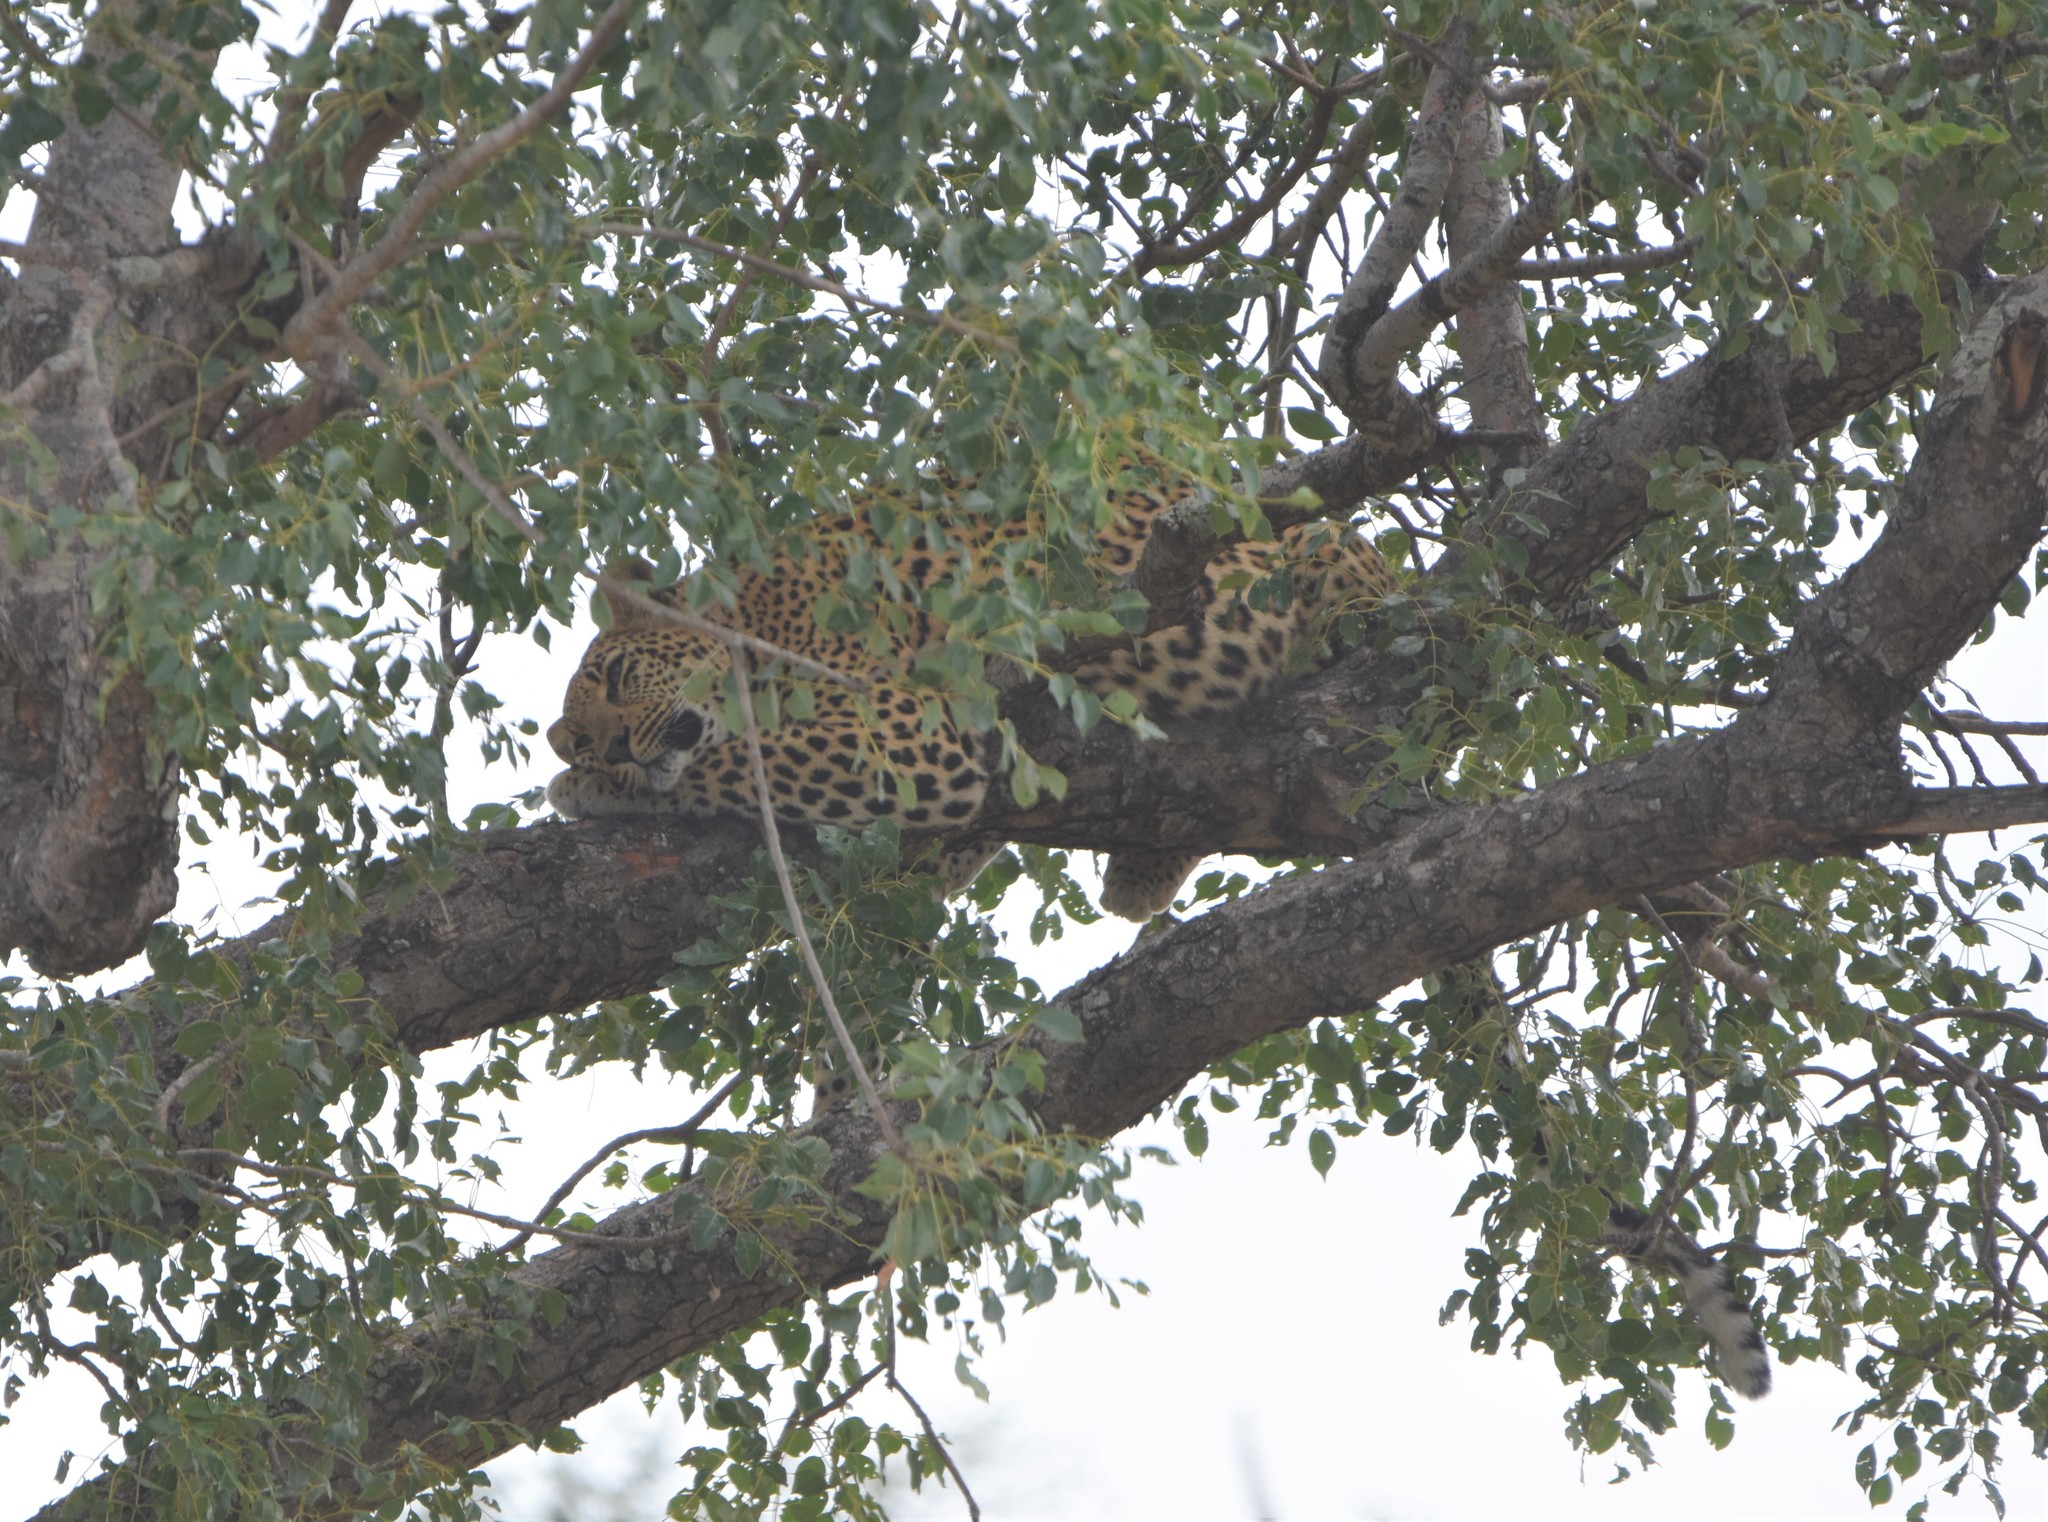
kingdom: Animalia
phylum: Chordata
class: Mammalia
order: Carnivora
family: Felidae
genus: Panthera
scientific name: Panthera pardus
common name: Leopard
